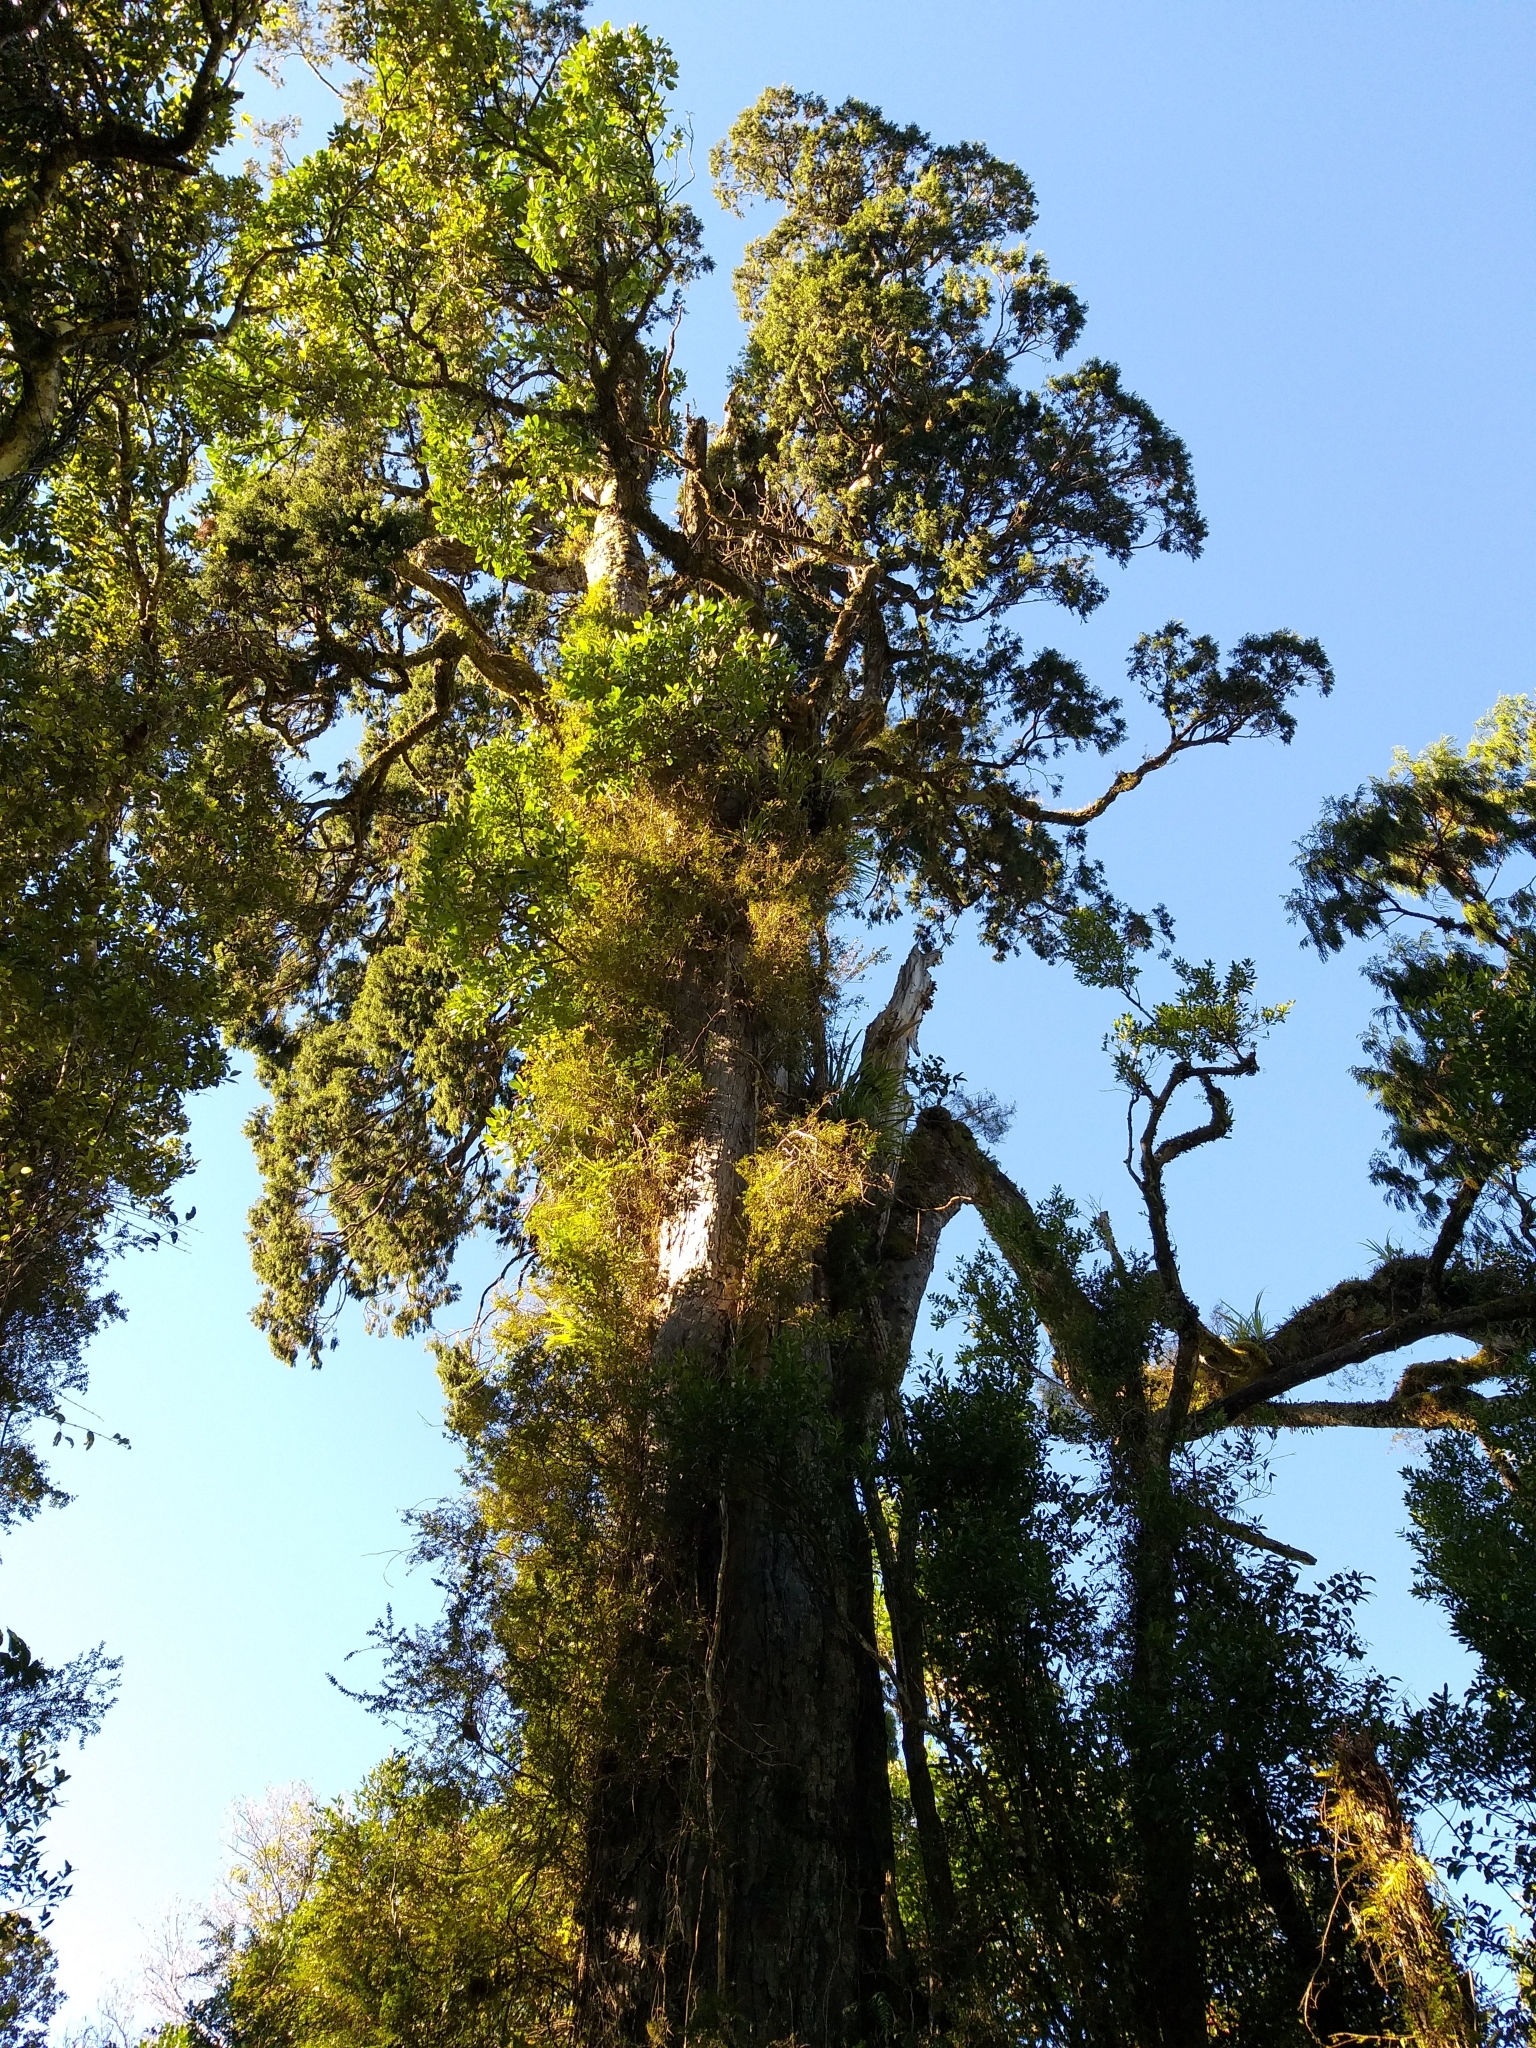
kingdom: Plantae
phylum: Tracheophyta
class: Pinopsida
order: Pinales
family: Podocarpaceae
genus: Dacrydium
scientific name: Dacrydium cupressinum
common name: Red pine
